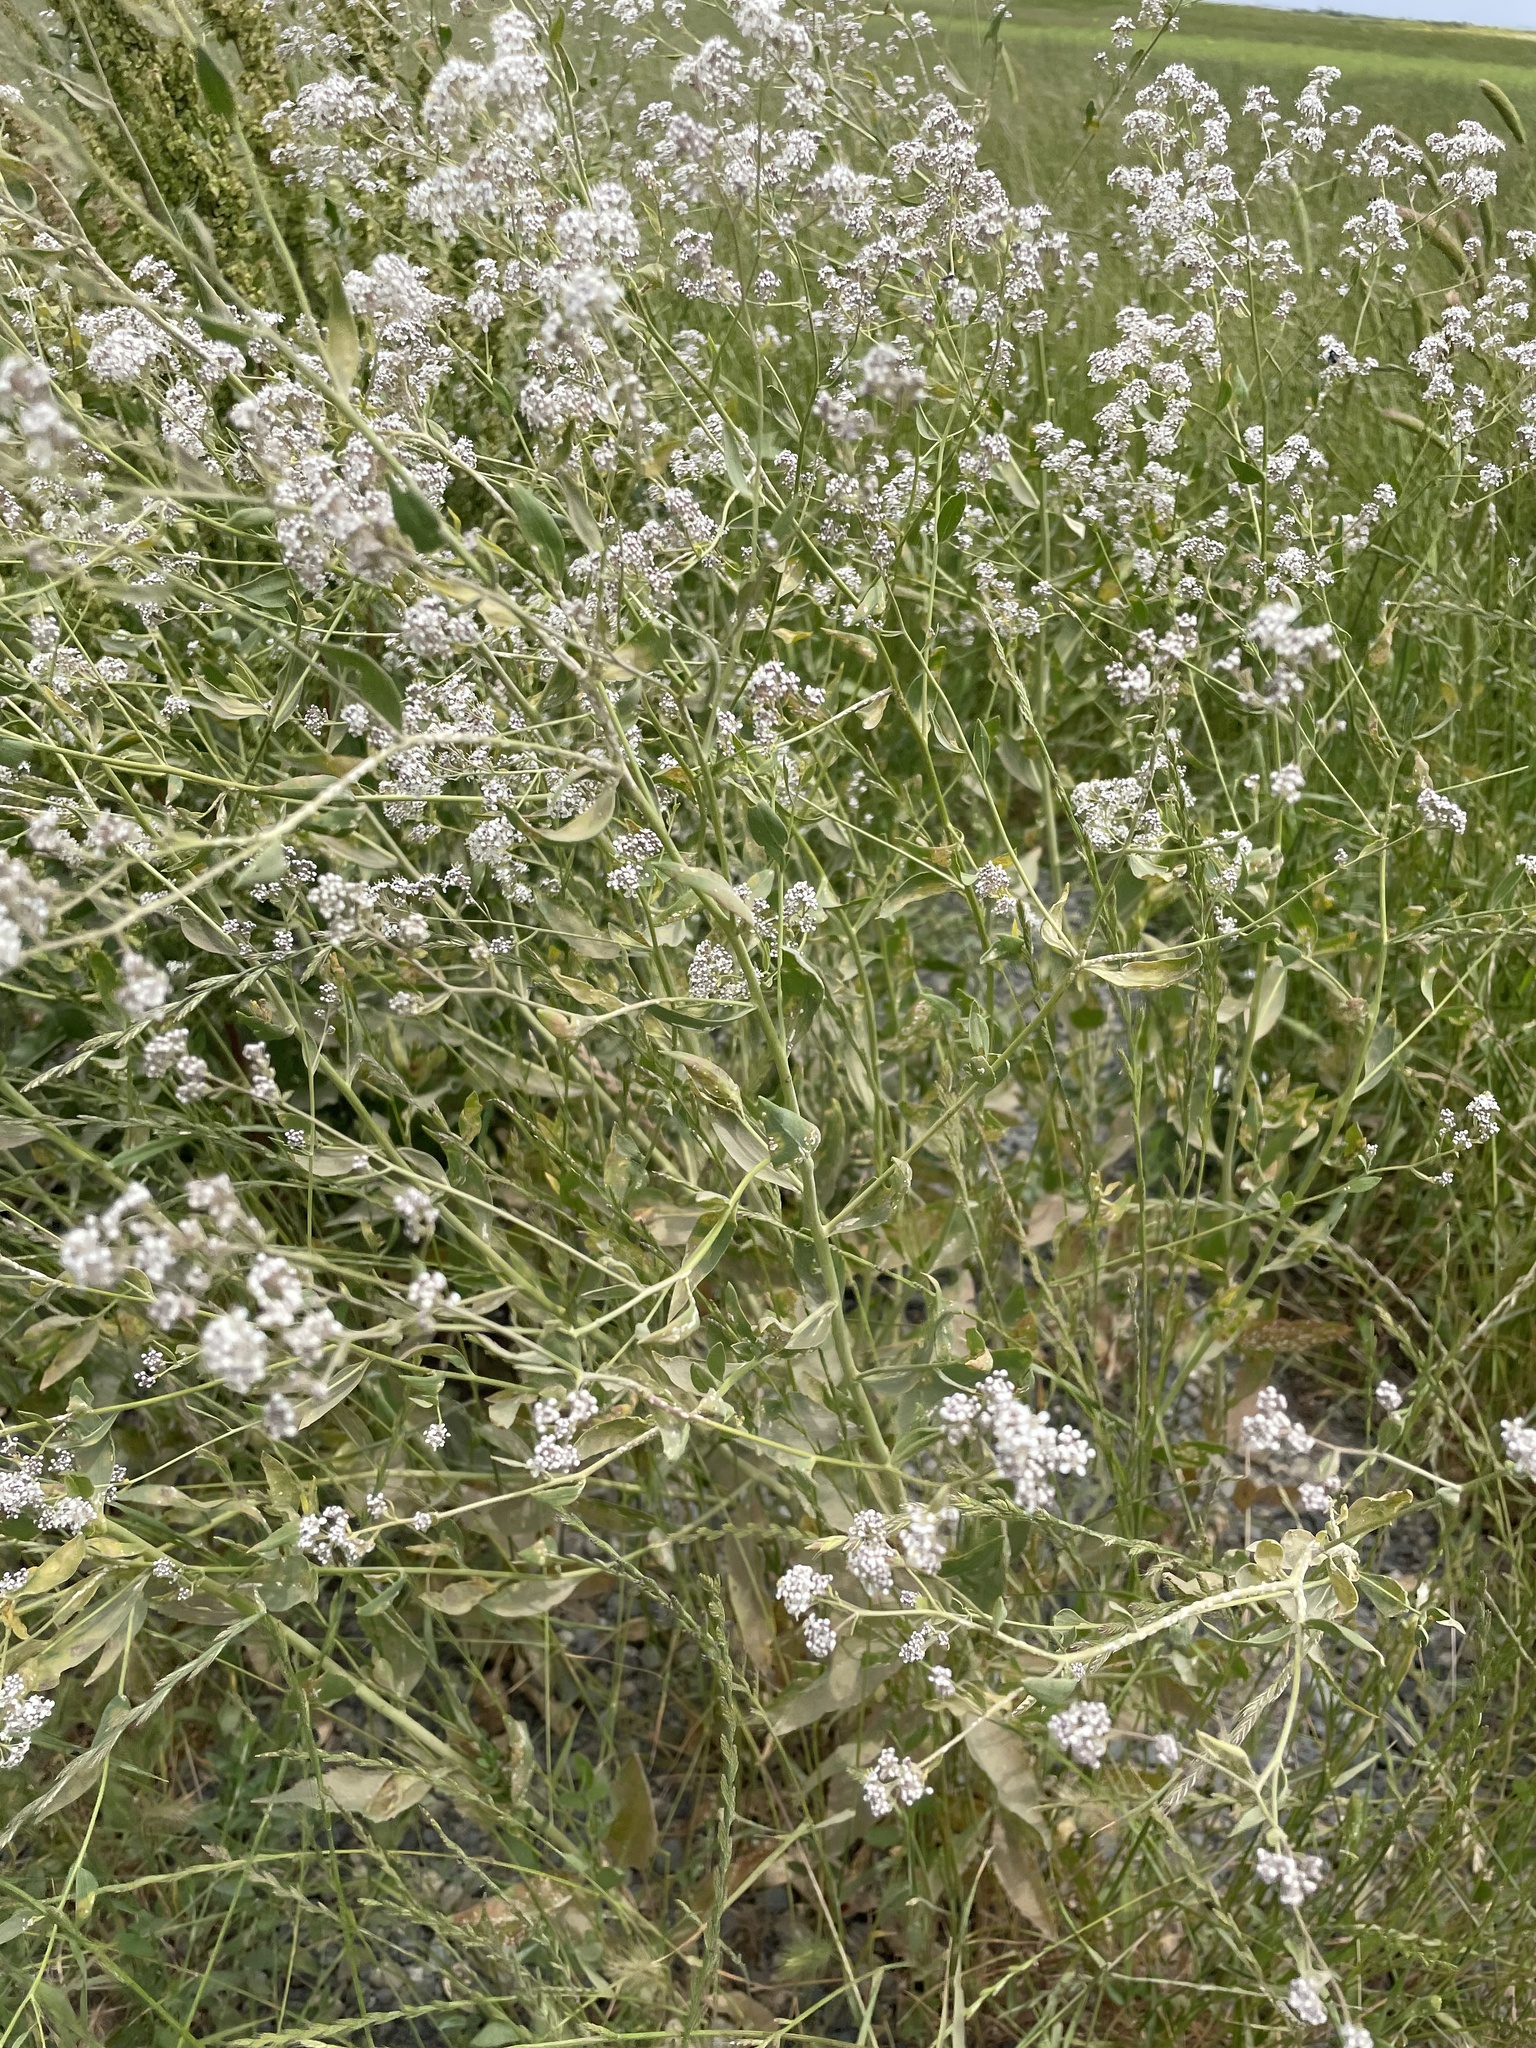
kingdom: Plantae
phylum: Tracheophyta
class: Magnoliopsida
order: Brassicales
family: Brassicaceae
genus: Lepidium
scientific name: Lepidium latifolium
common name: Dittander
